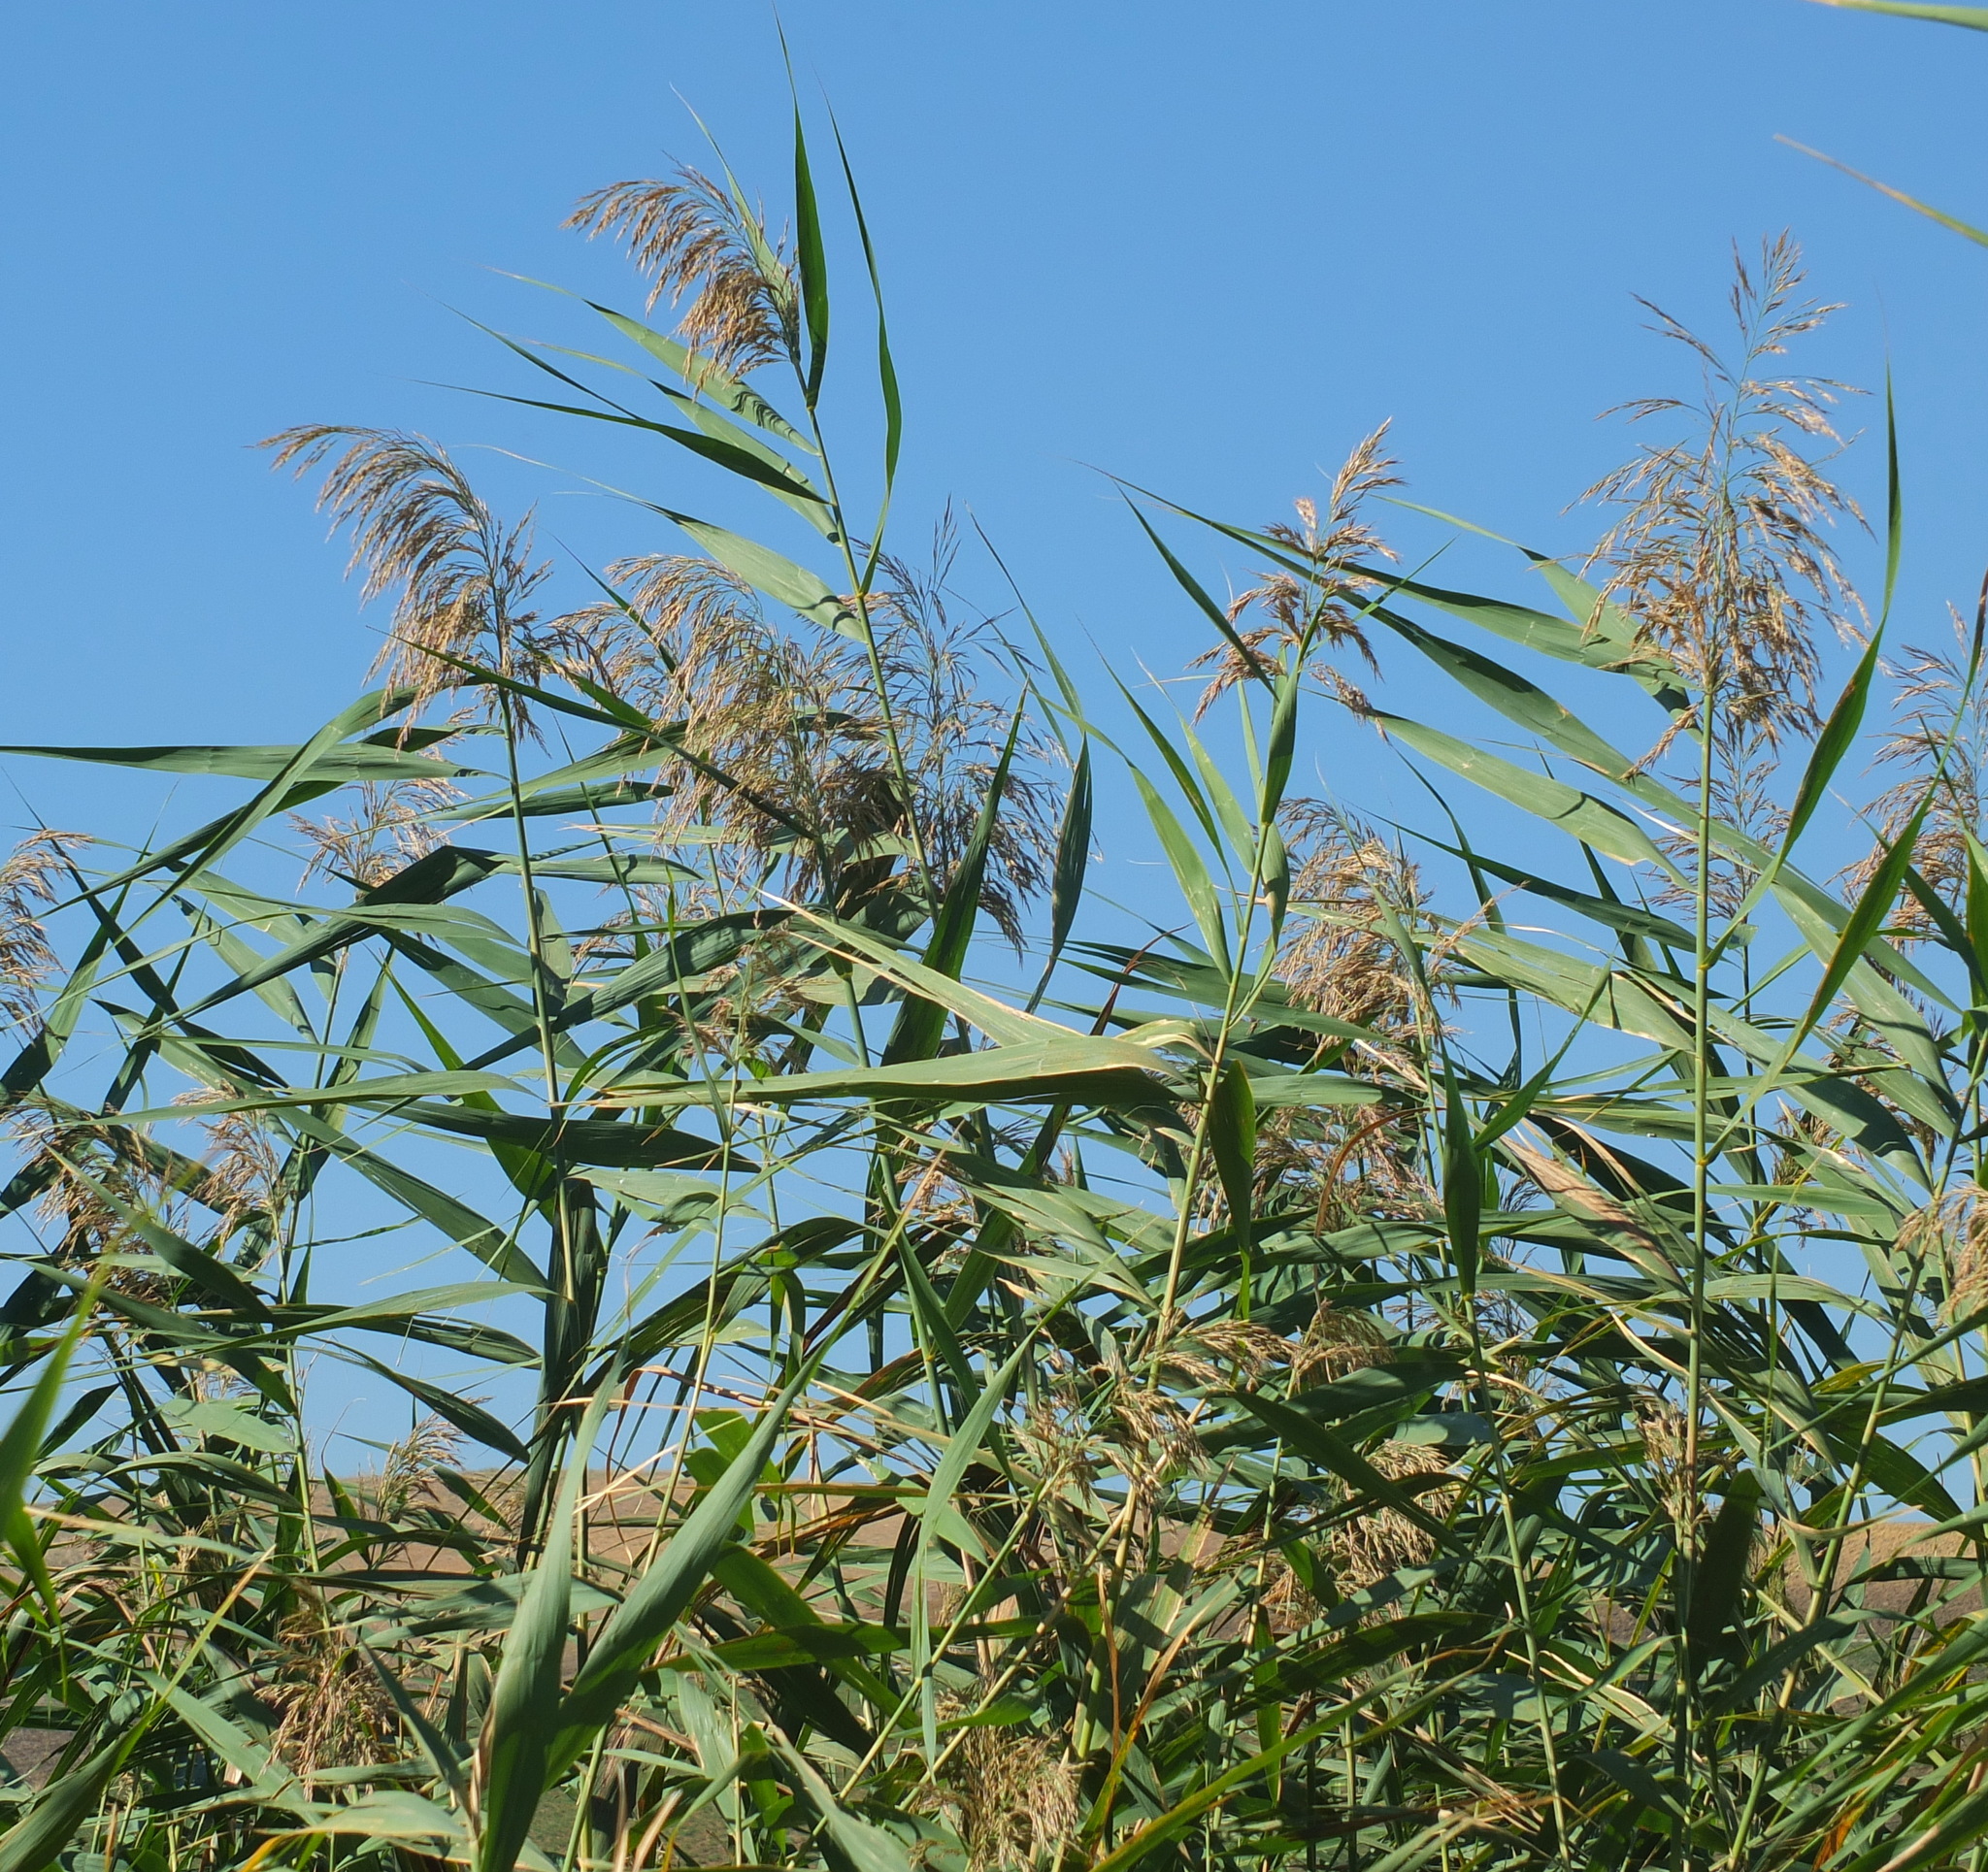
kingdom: Plantae
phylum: Tracheophyta
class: Liliopsida
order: Poales
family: Poaceae
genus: Phragmites
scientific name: Phragmites australis
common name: Common reed
